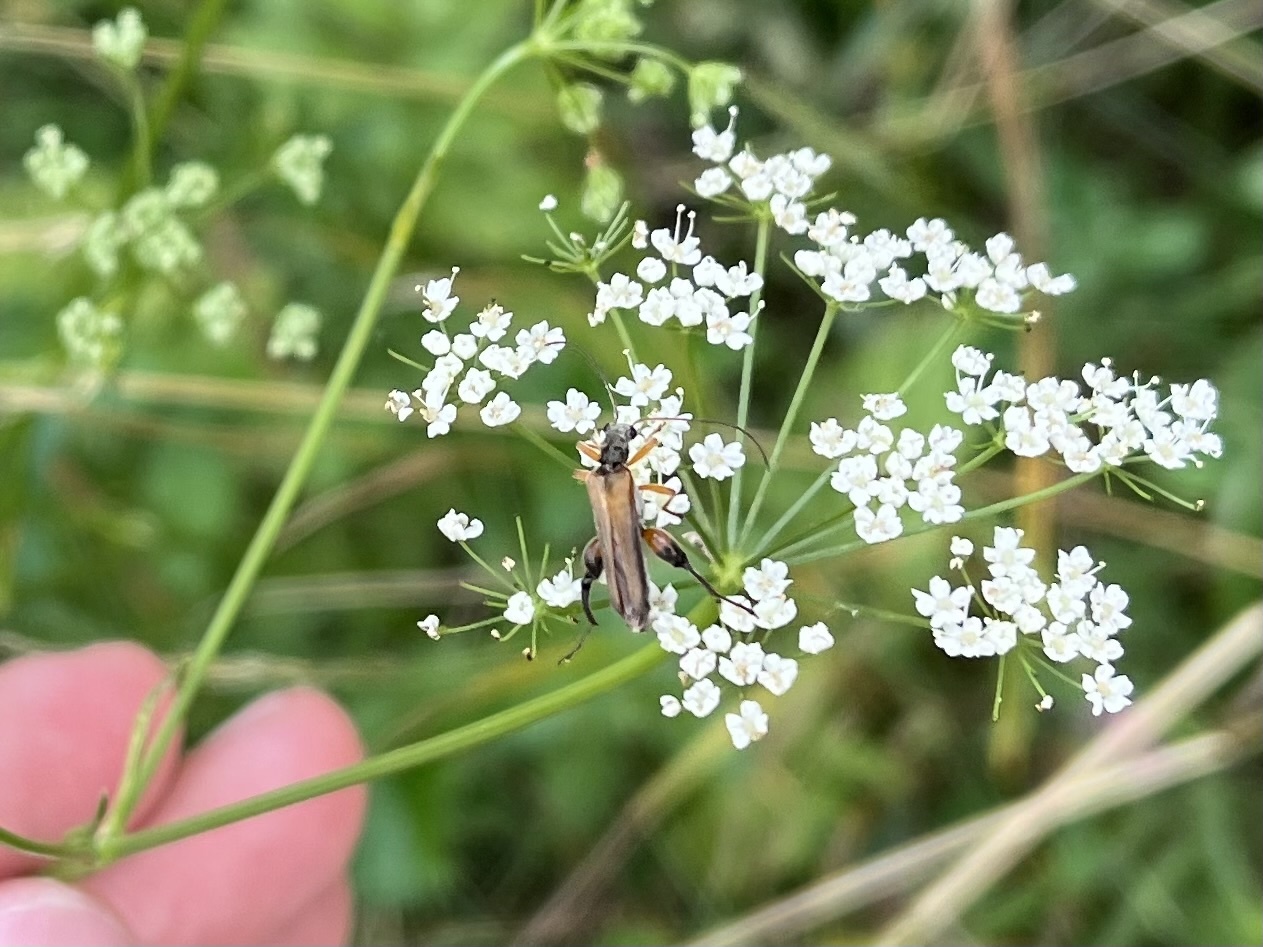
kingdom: Animalia
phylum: Arthropoda
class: Insecta
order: Coleoptera
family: Oedemeridae
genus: Oedemera
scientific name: Oedemera podagrariae
